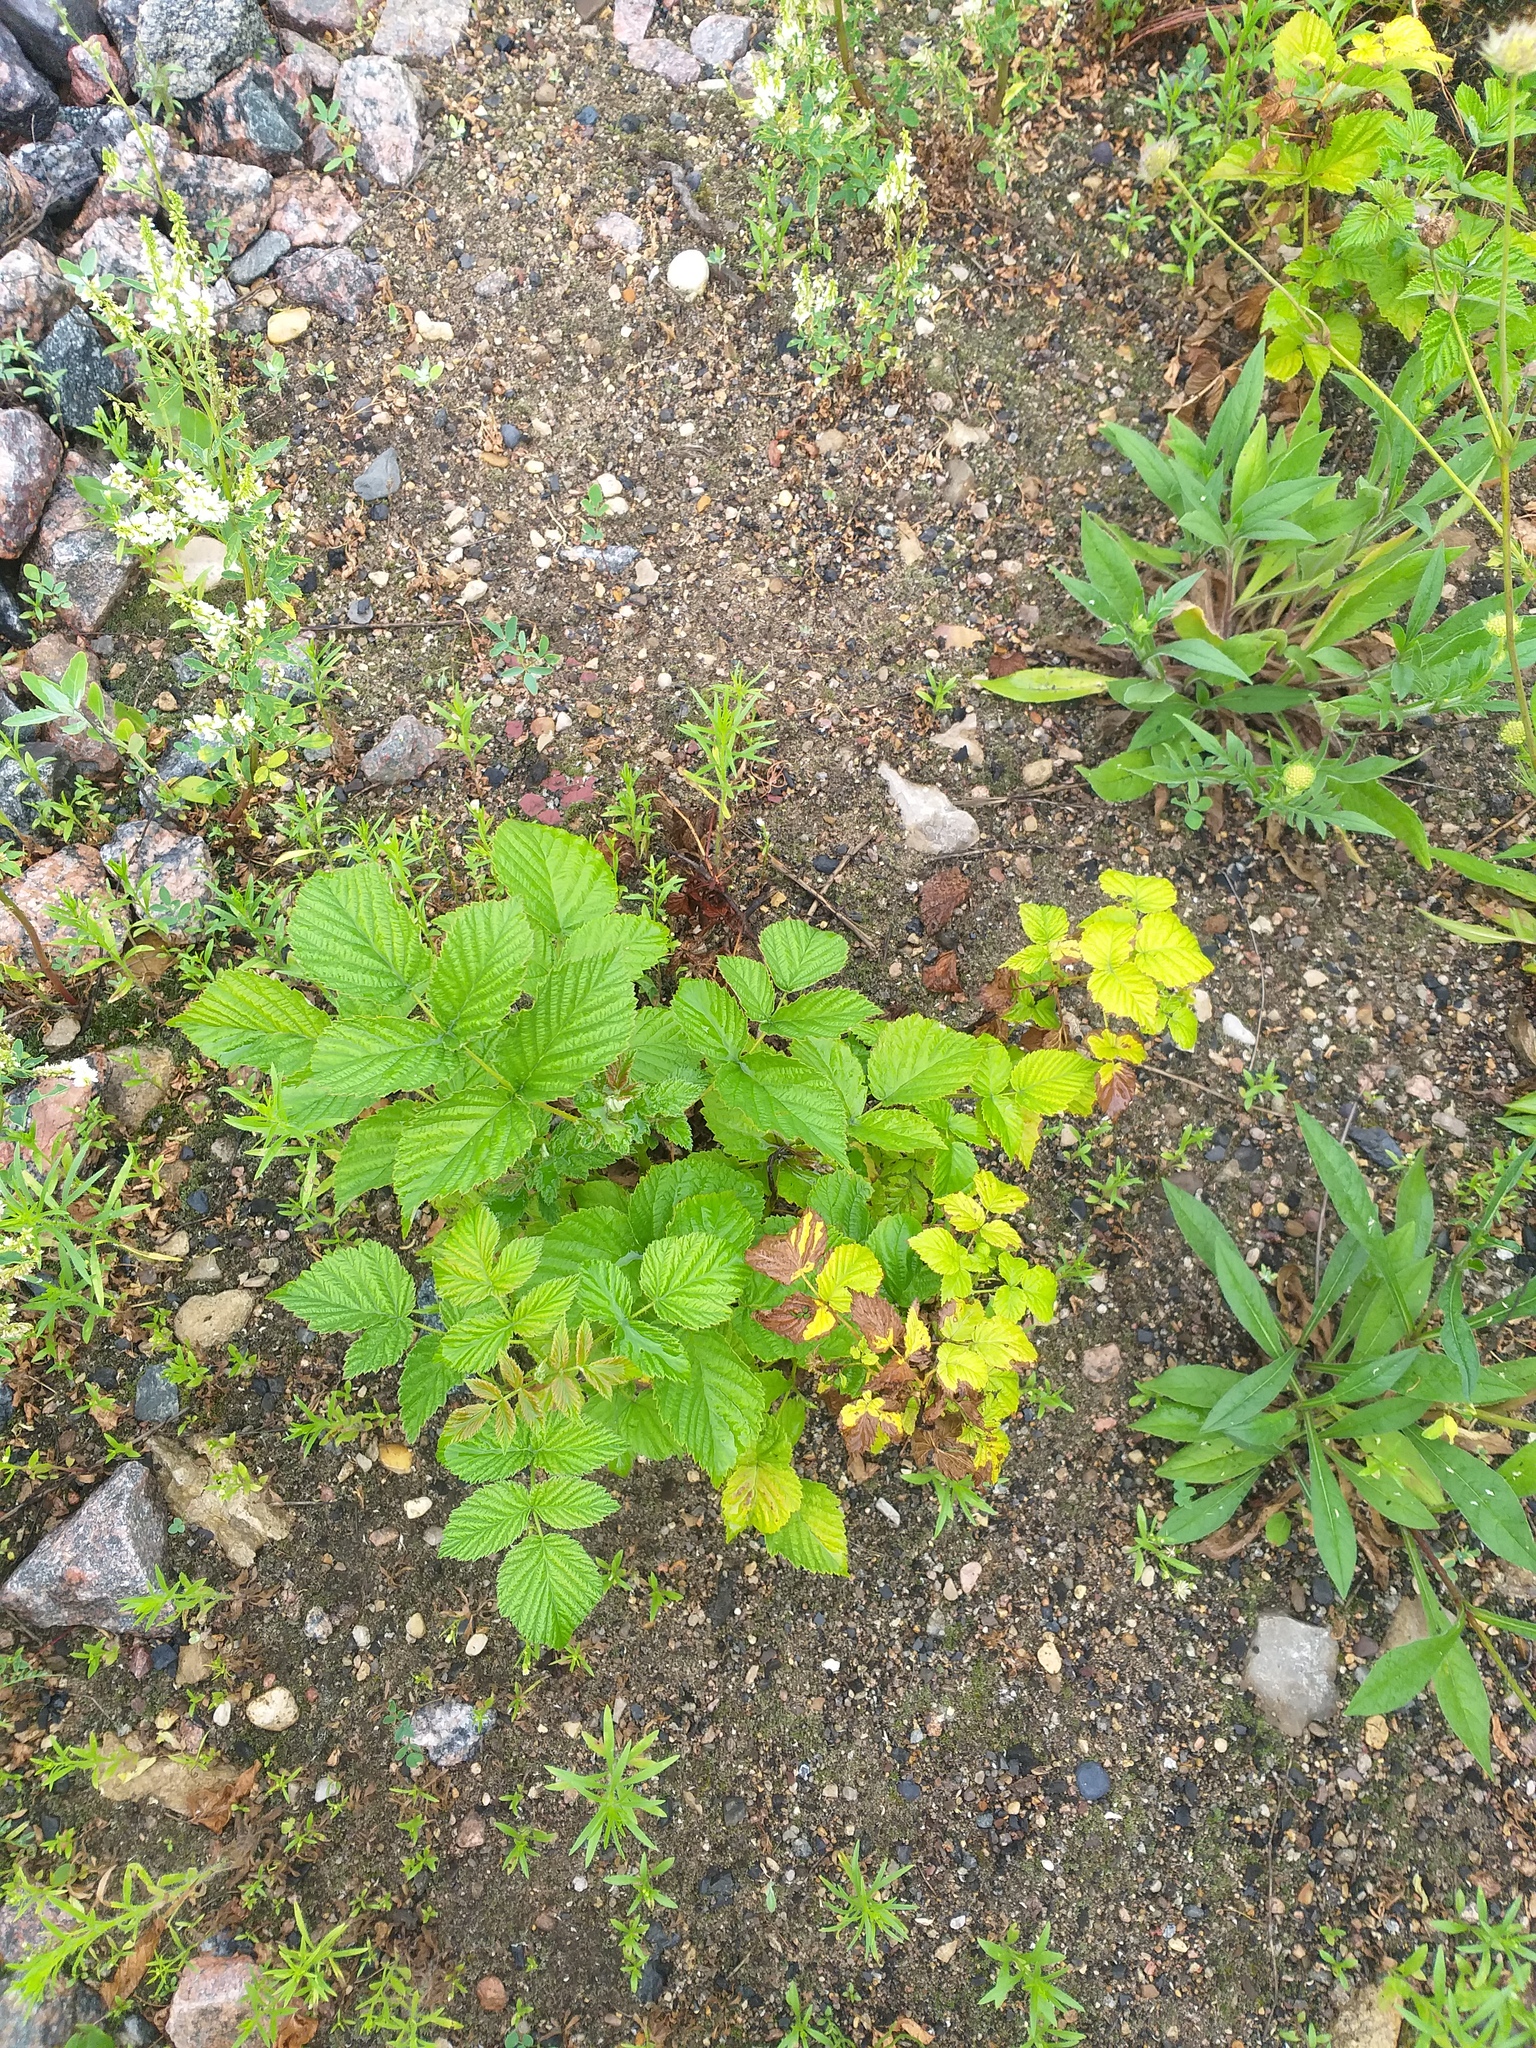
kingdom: Plantae
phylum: Tracheophyta
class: Magnoliopsida
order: Rosales
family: Rosaceae
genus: Rubus
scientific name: Rubus idaeus
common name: Raspberry
